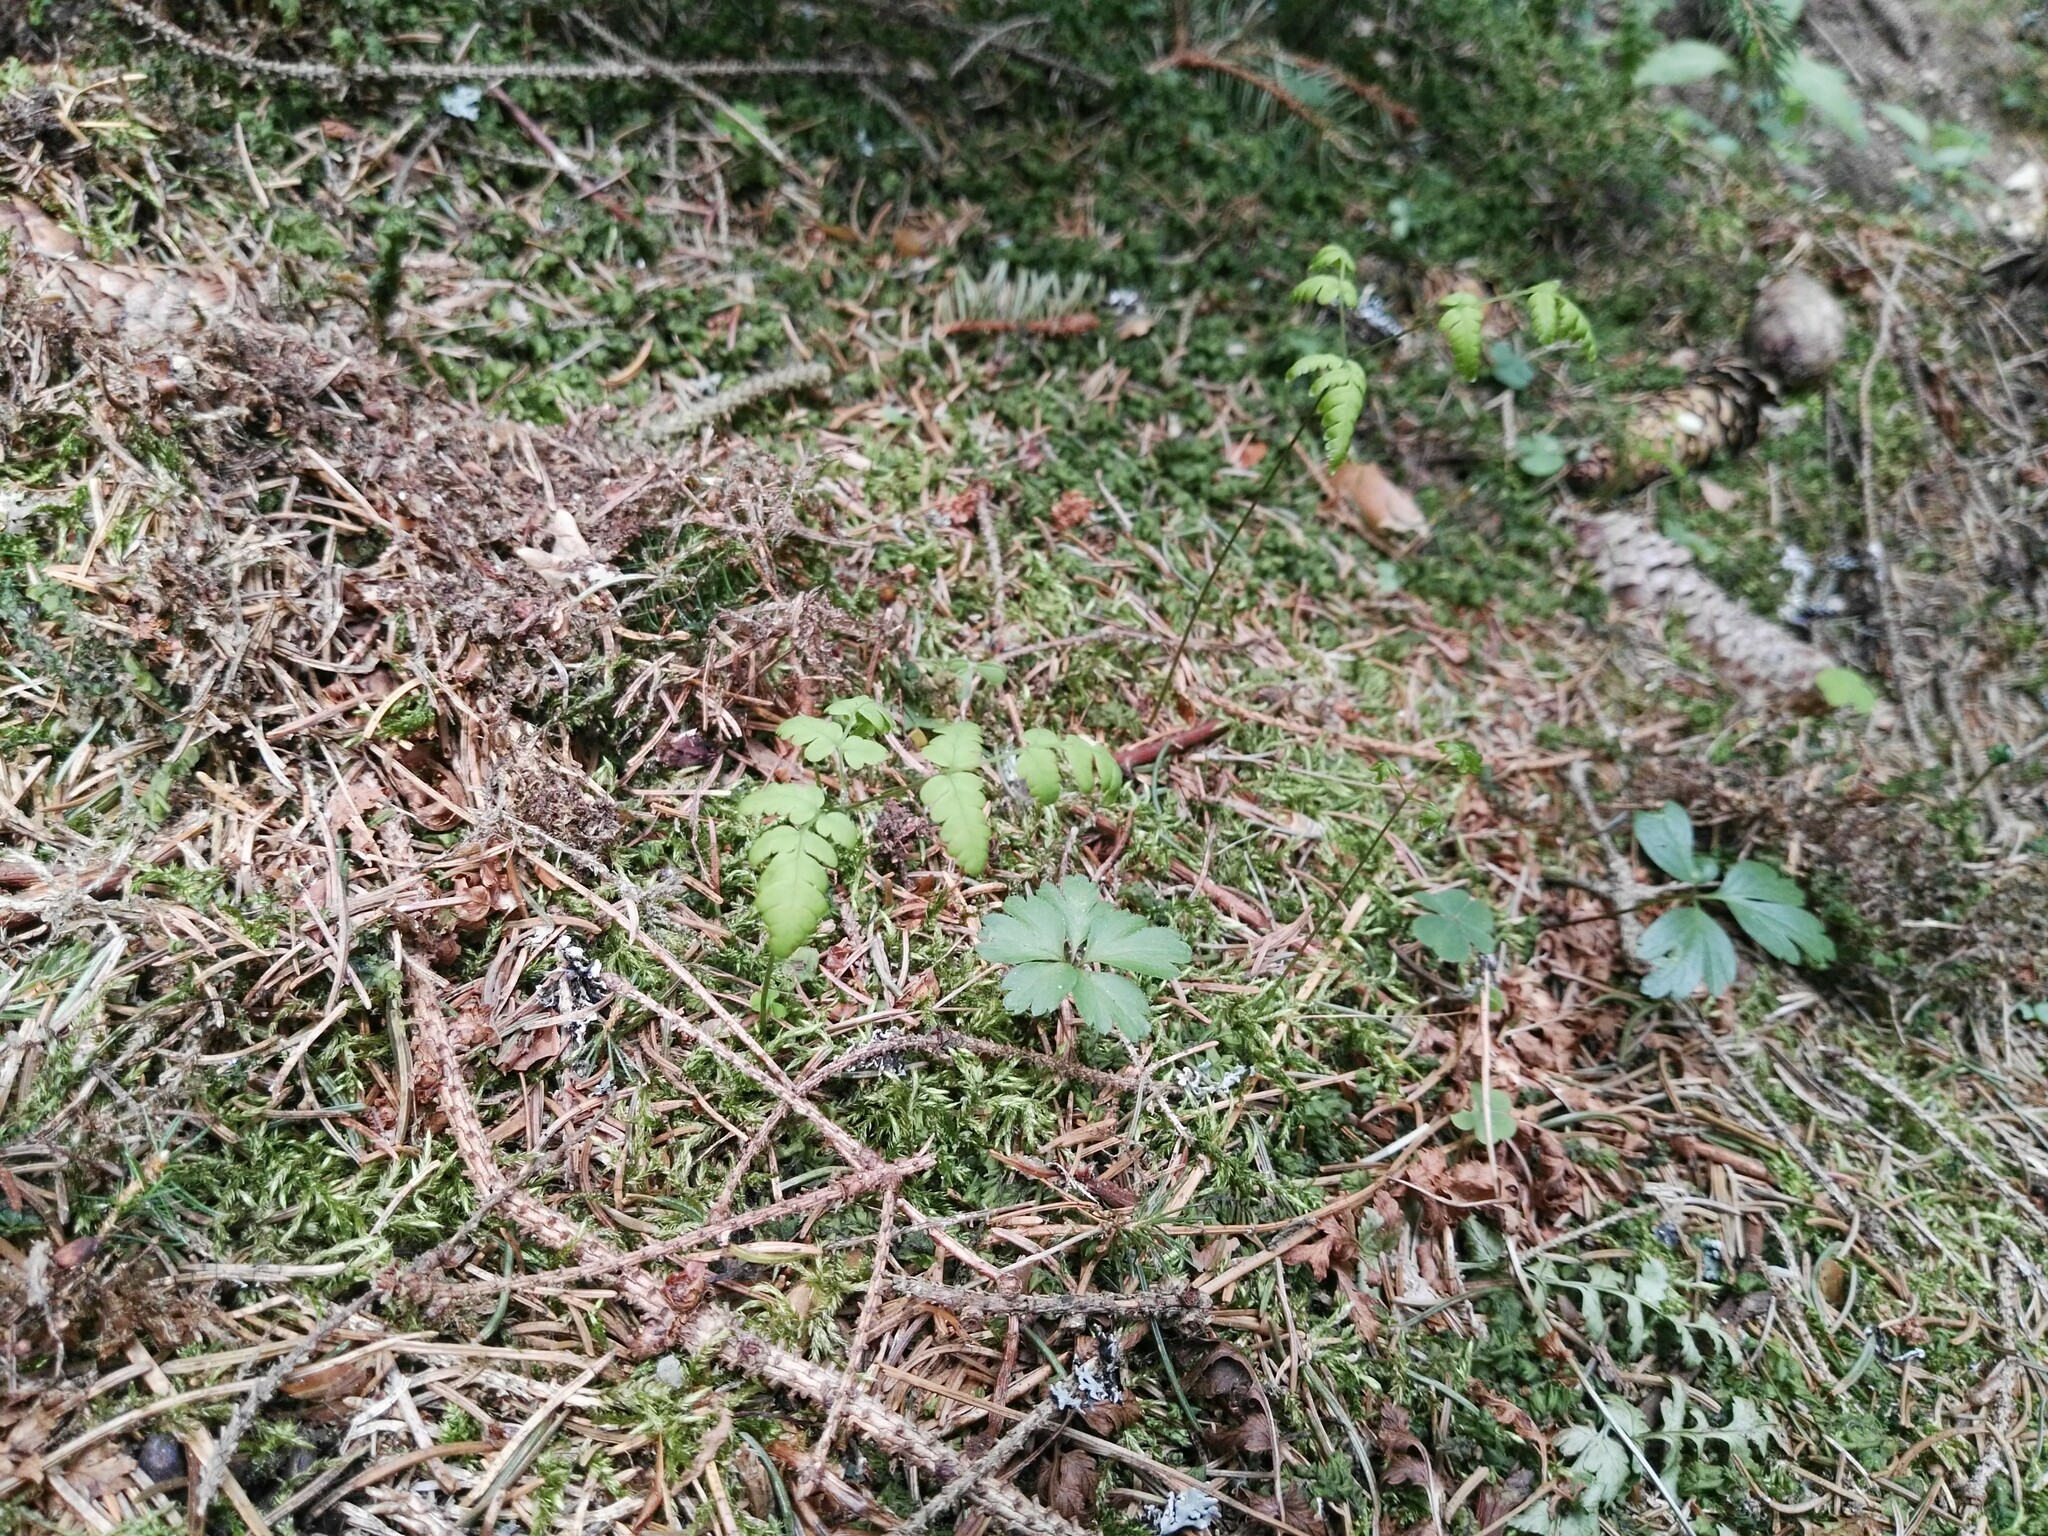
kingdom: Plantae
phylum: Tracheophyta
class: Polypodiopsida
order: Polypodiales
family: Cystopteridaceae
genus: Gymnocarpium
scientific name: Gymnocarpium dryopteris
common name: Oak fern
